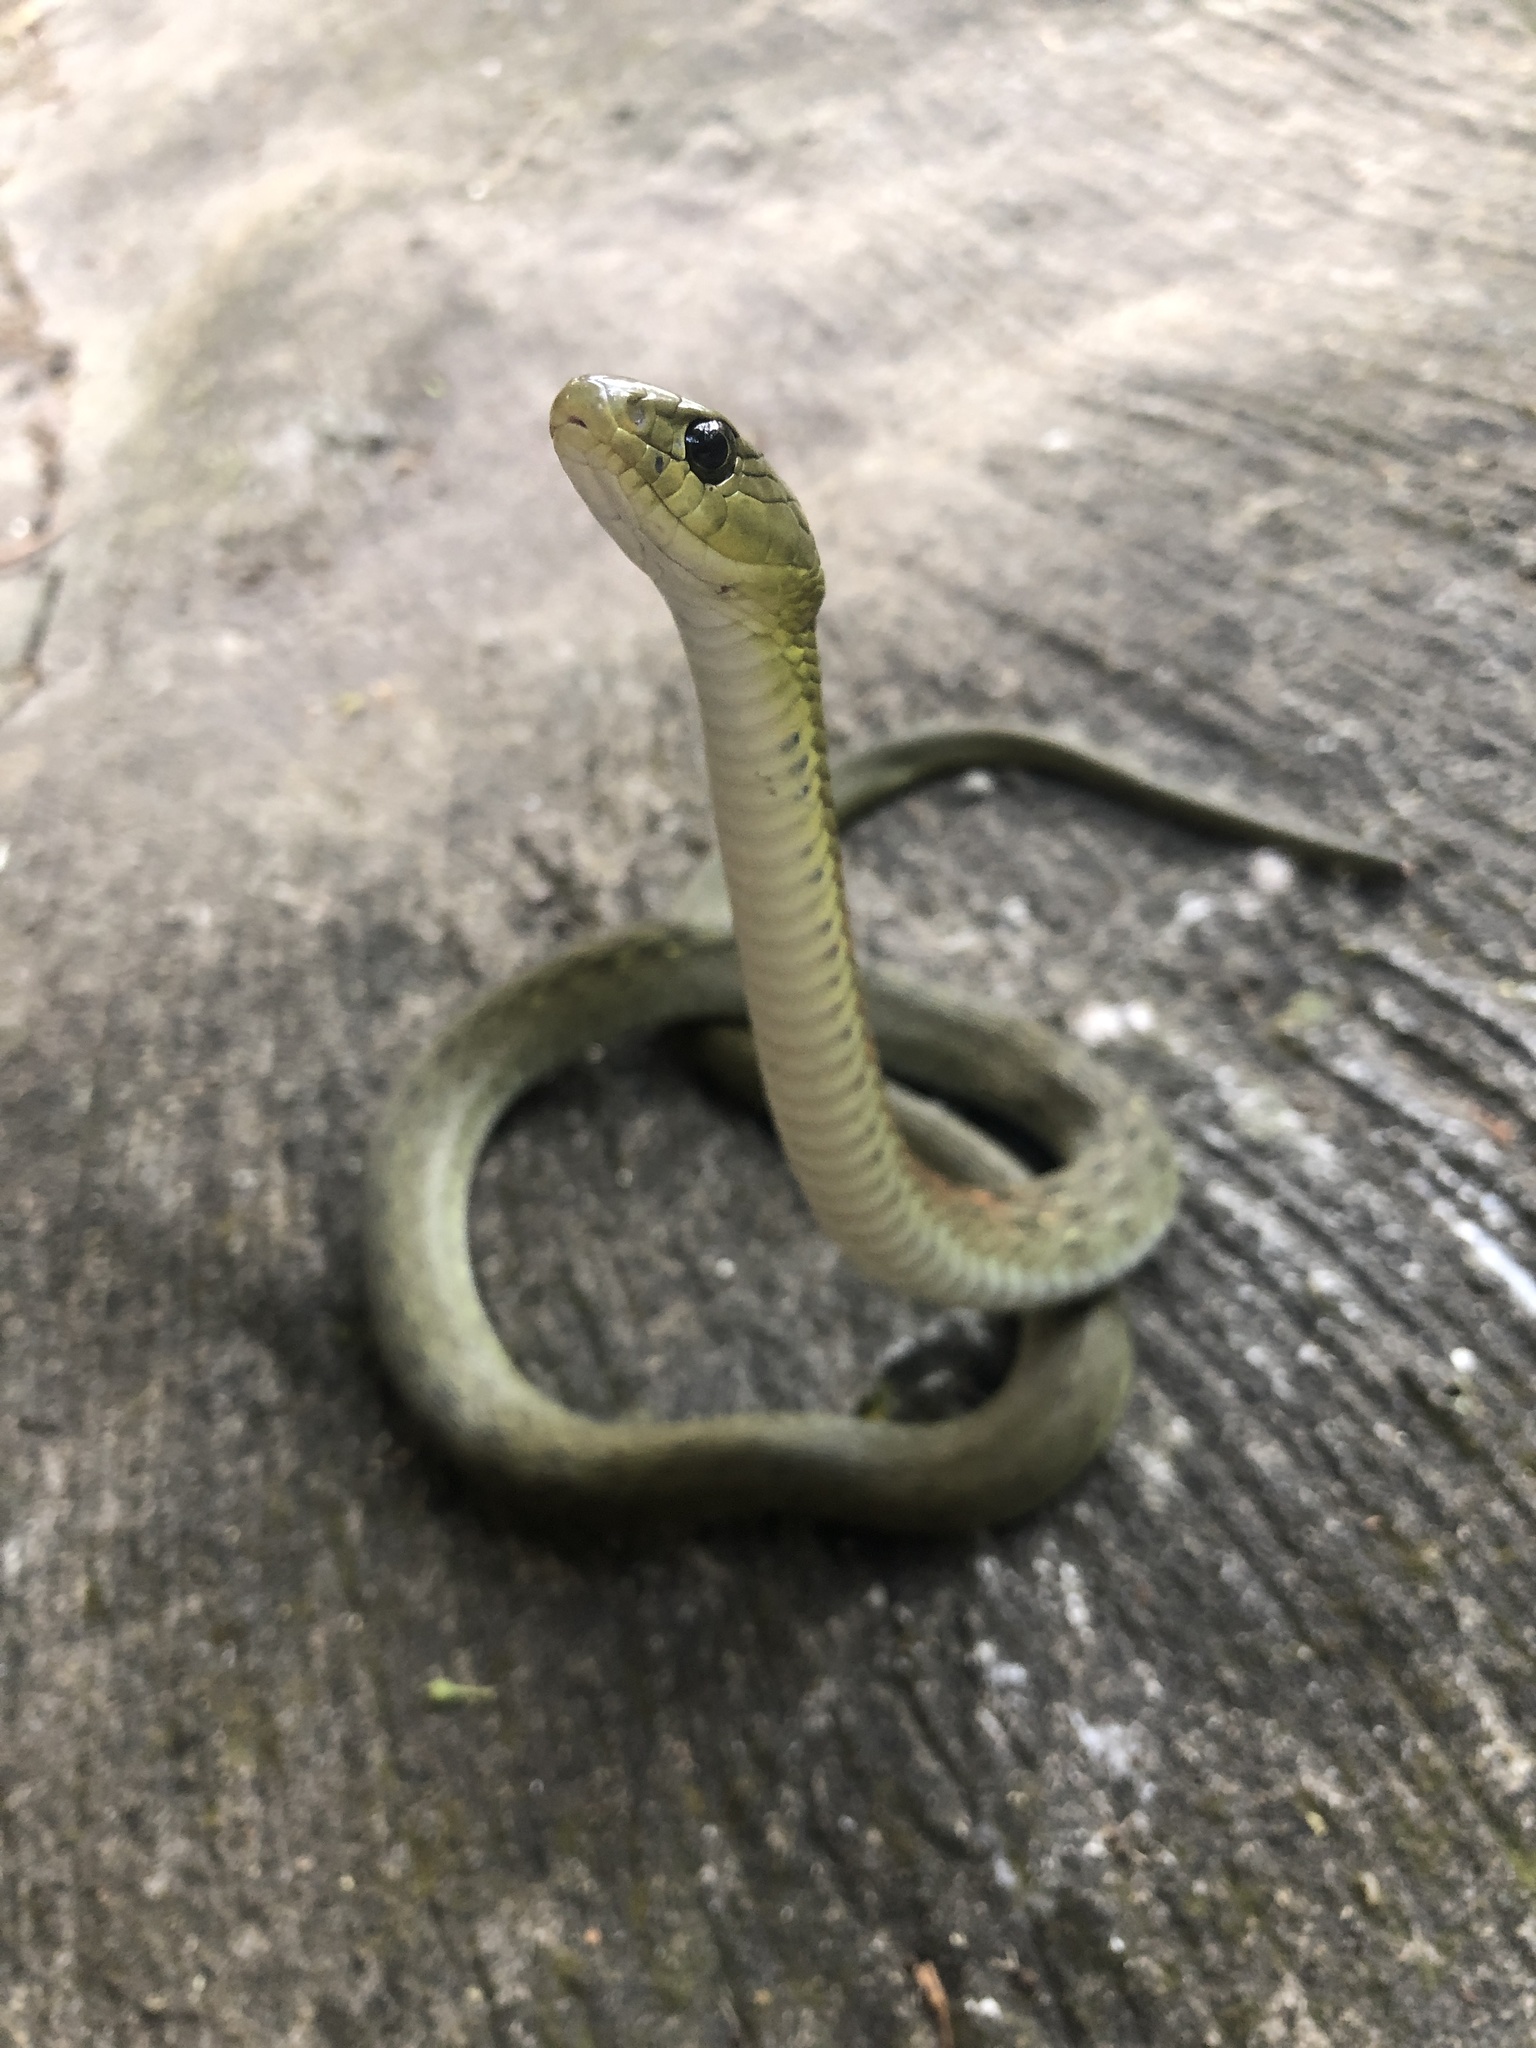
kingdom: Animalia
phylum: Chordata
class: Squamata
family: Colubridae
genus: Rhabdophis
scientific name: Rhabdophis helleri
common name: Heller’s red-necked keelback
